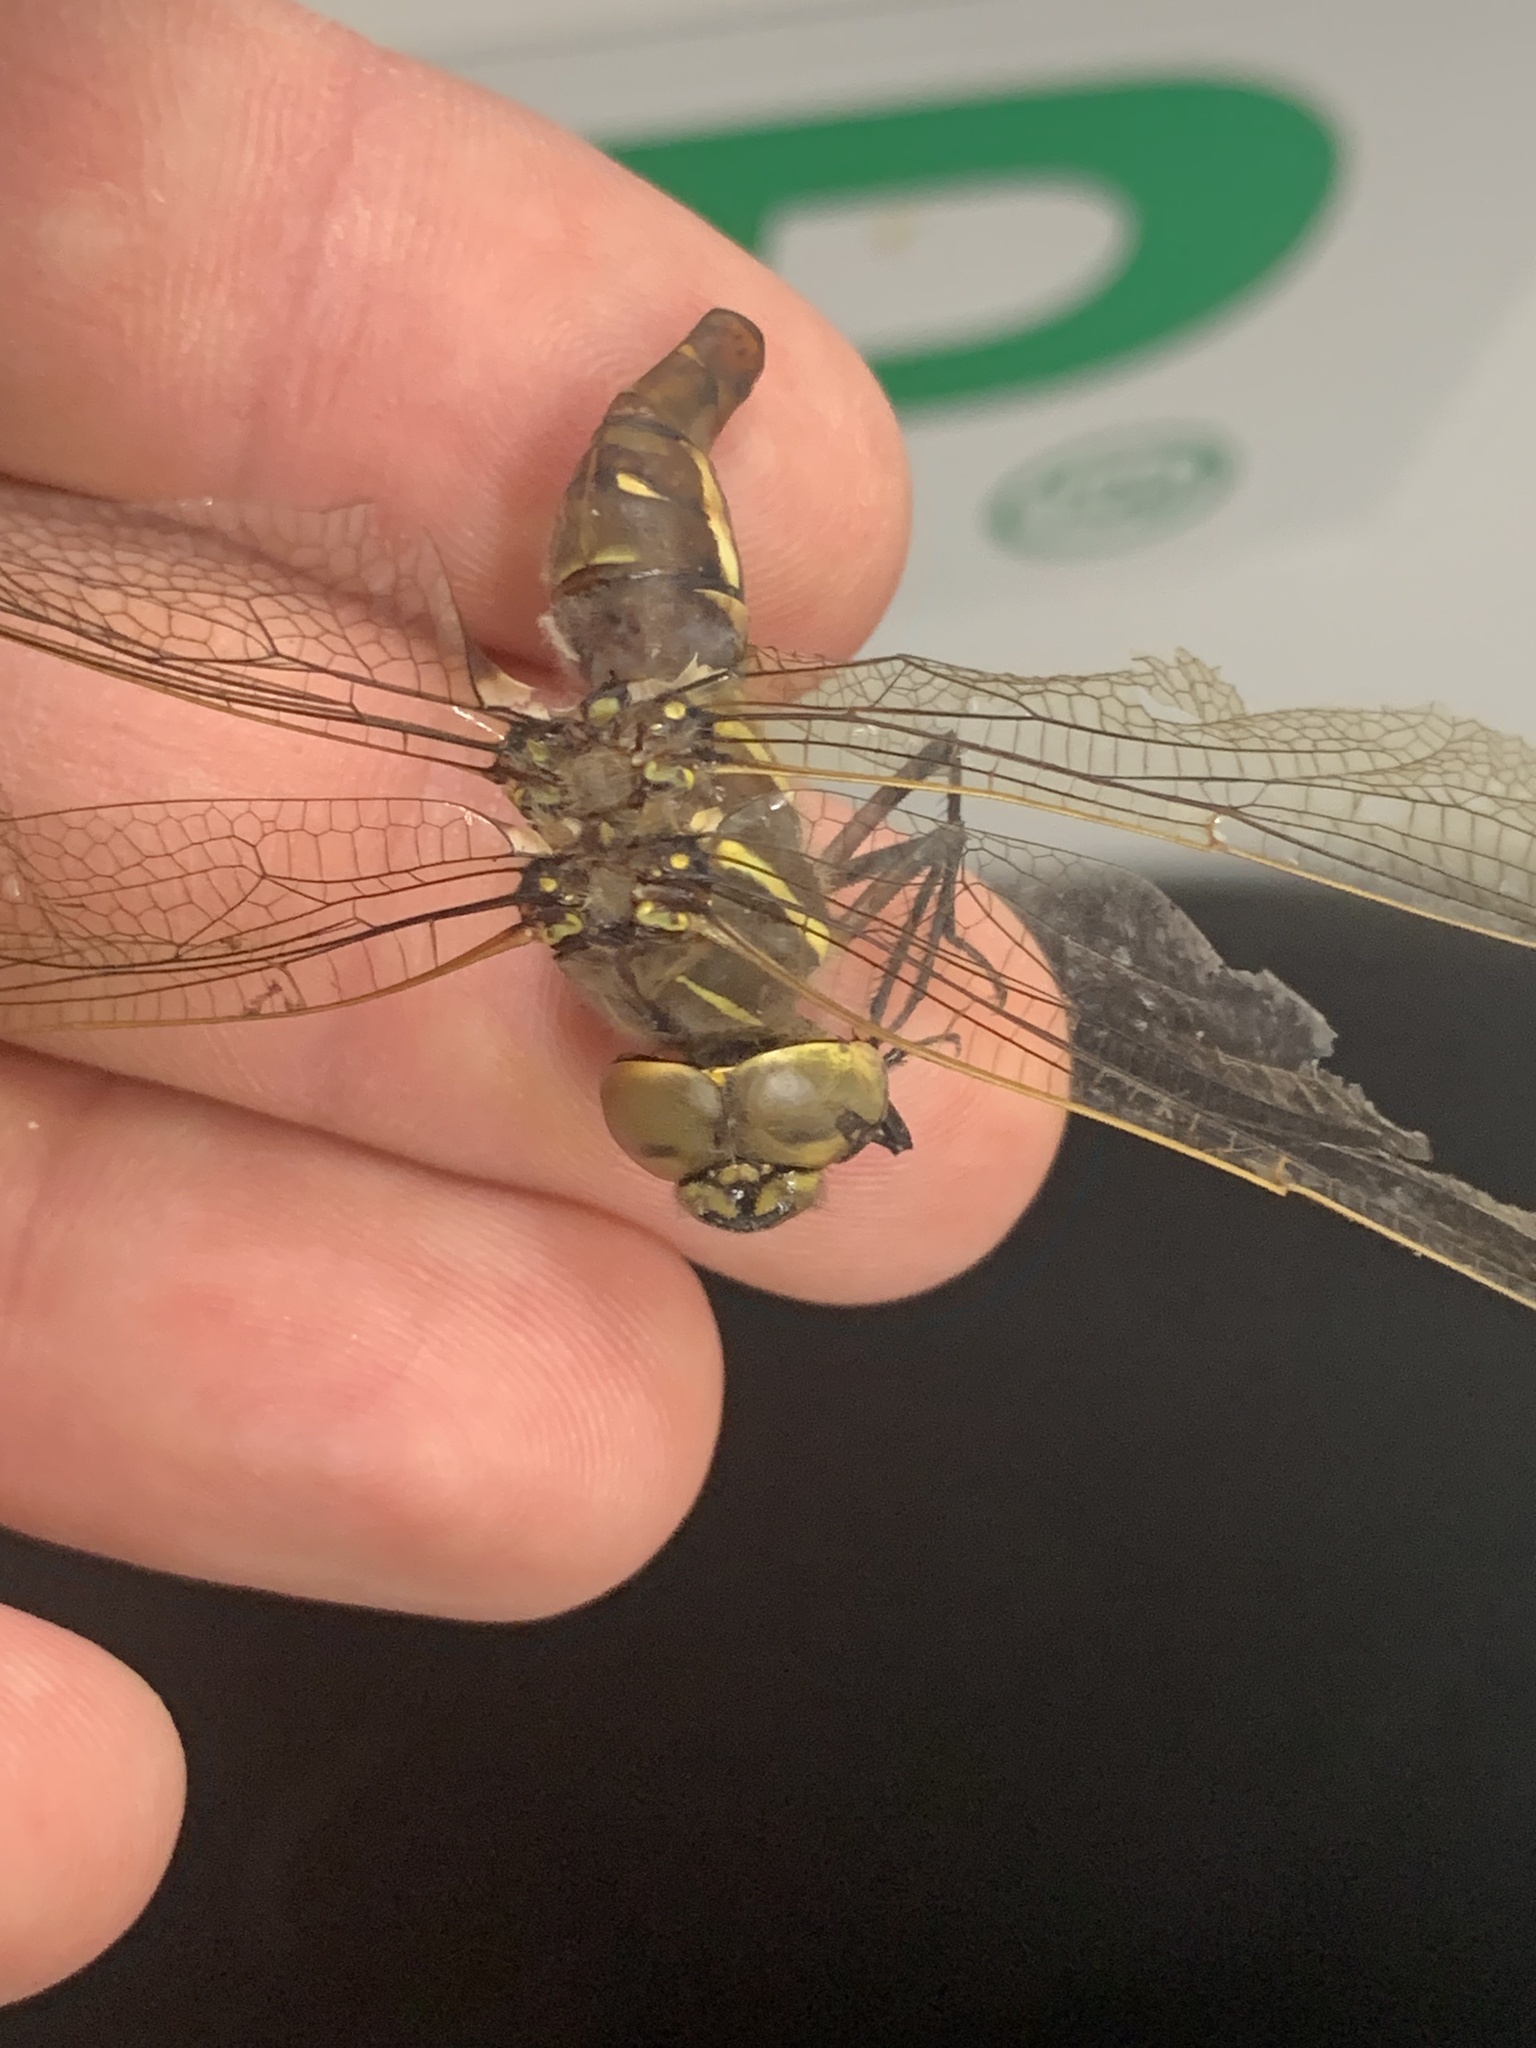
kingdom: Animalia
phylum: Arthropoda
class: Insecta
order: Odonata
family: Aeshnidae
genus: Aeshna
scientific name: Aeshna brevistyla
